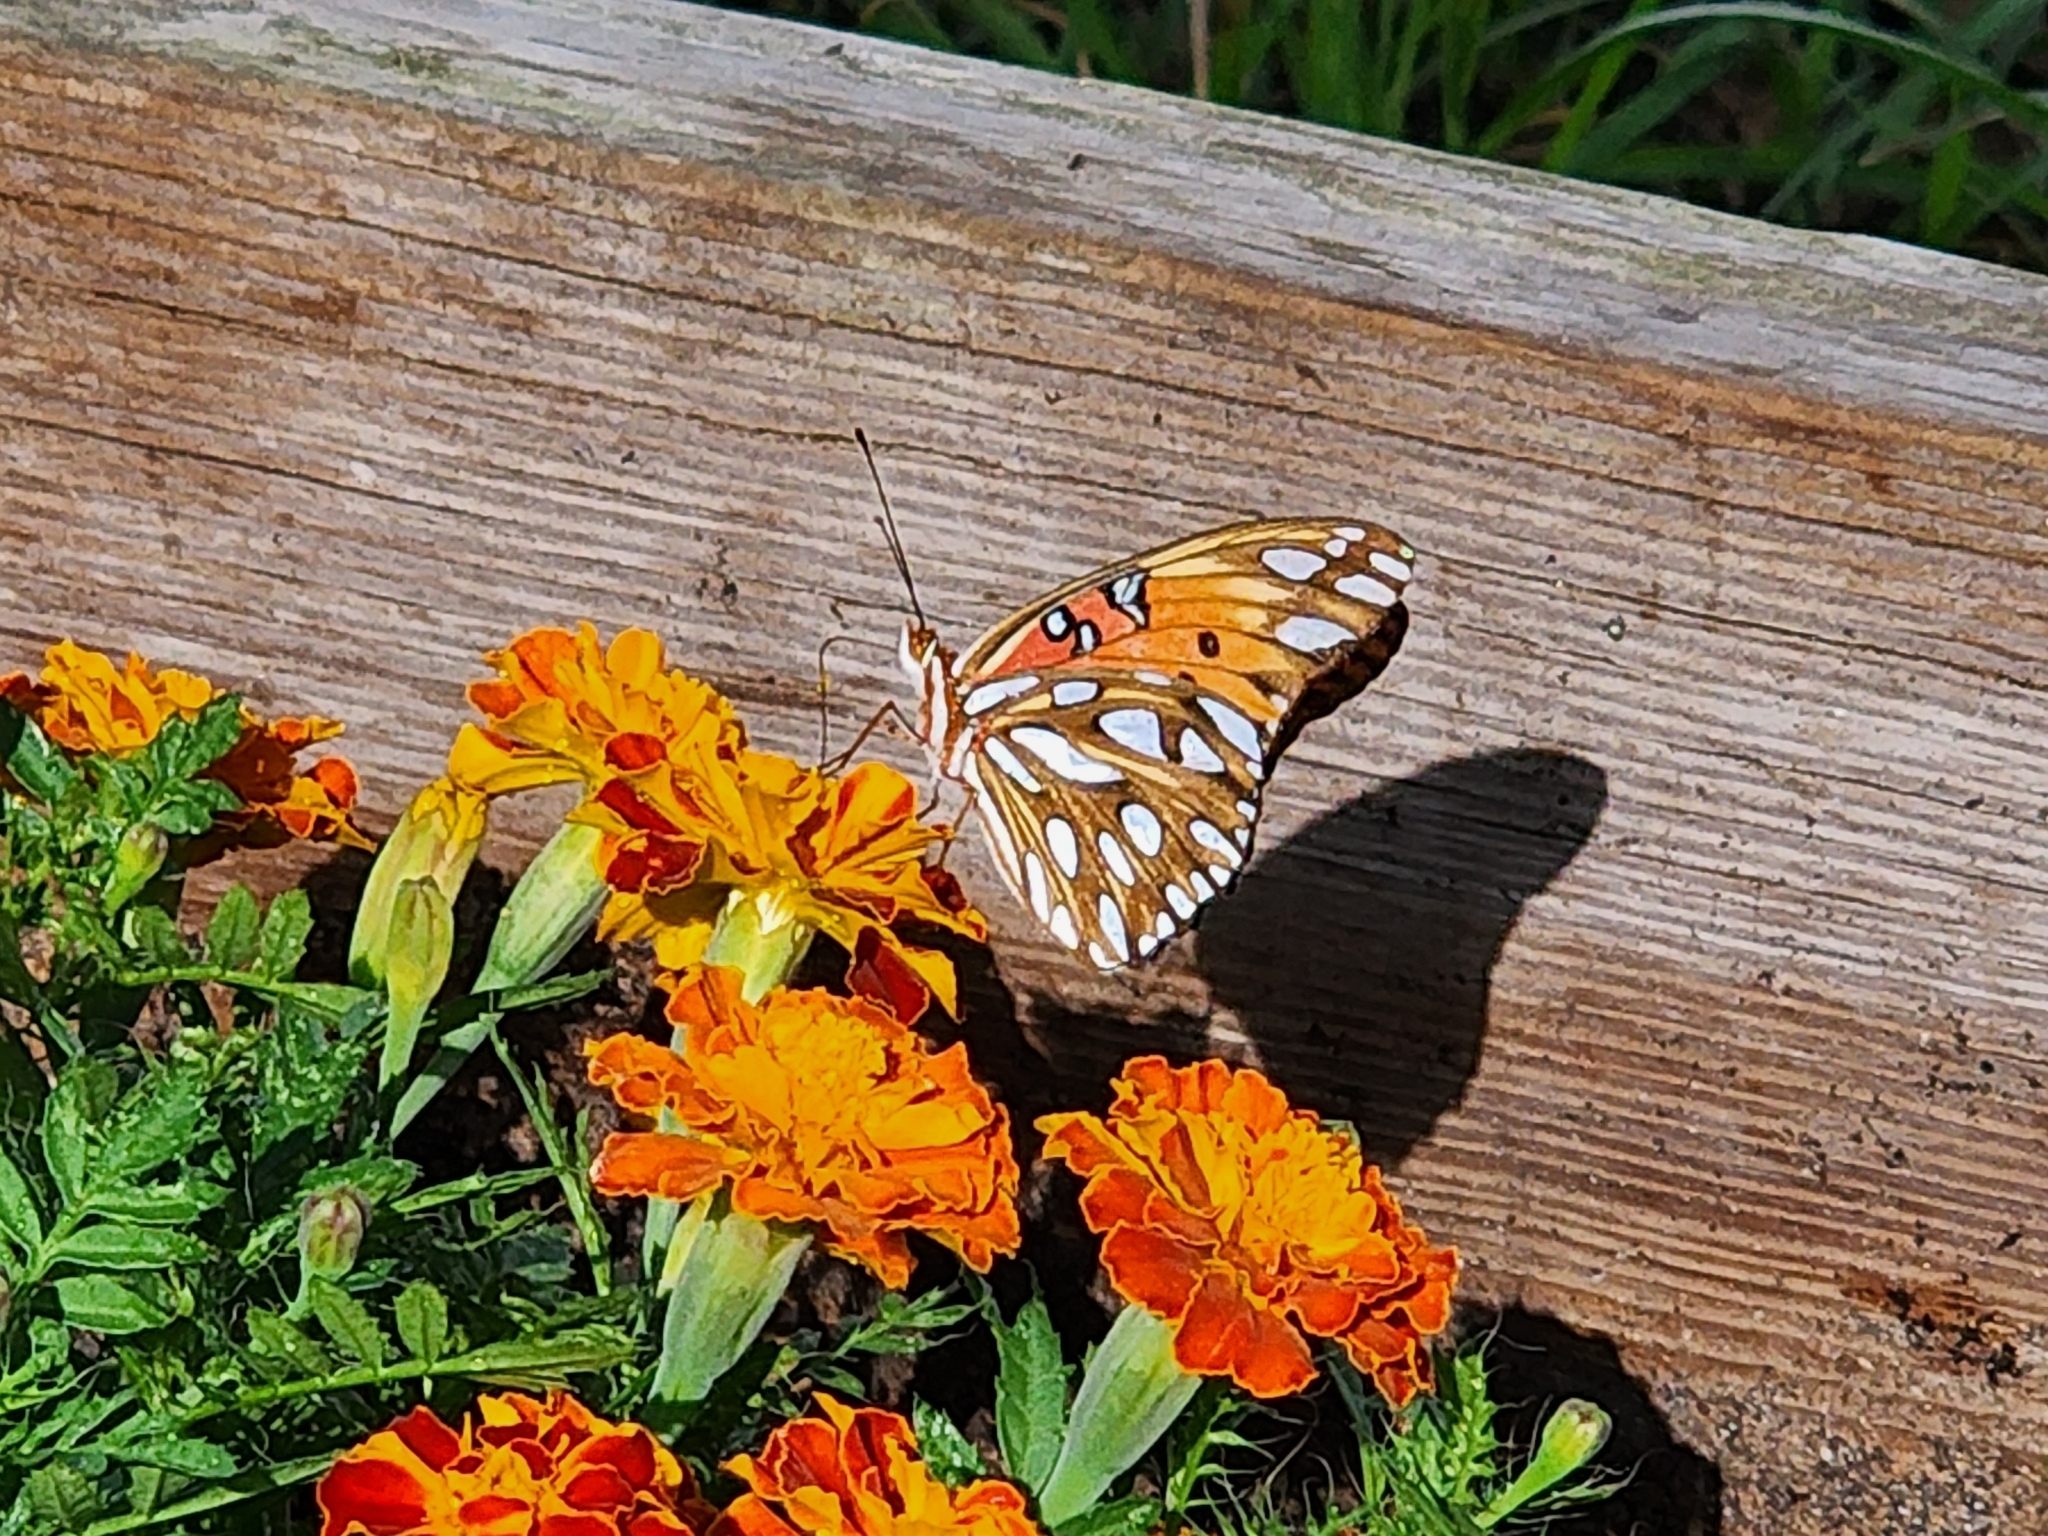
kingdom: Animalia
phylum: Arthropoda
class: Insecta
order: Lepidoptera
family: Nymphalidae
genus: Dione
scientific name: Dione vanillae
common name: Gulf fritillary
